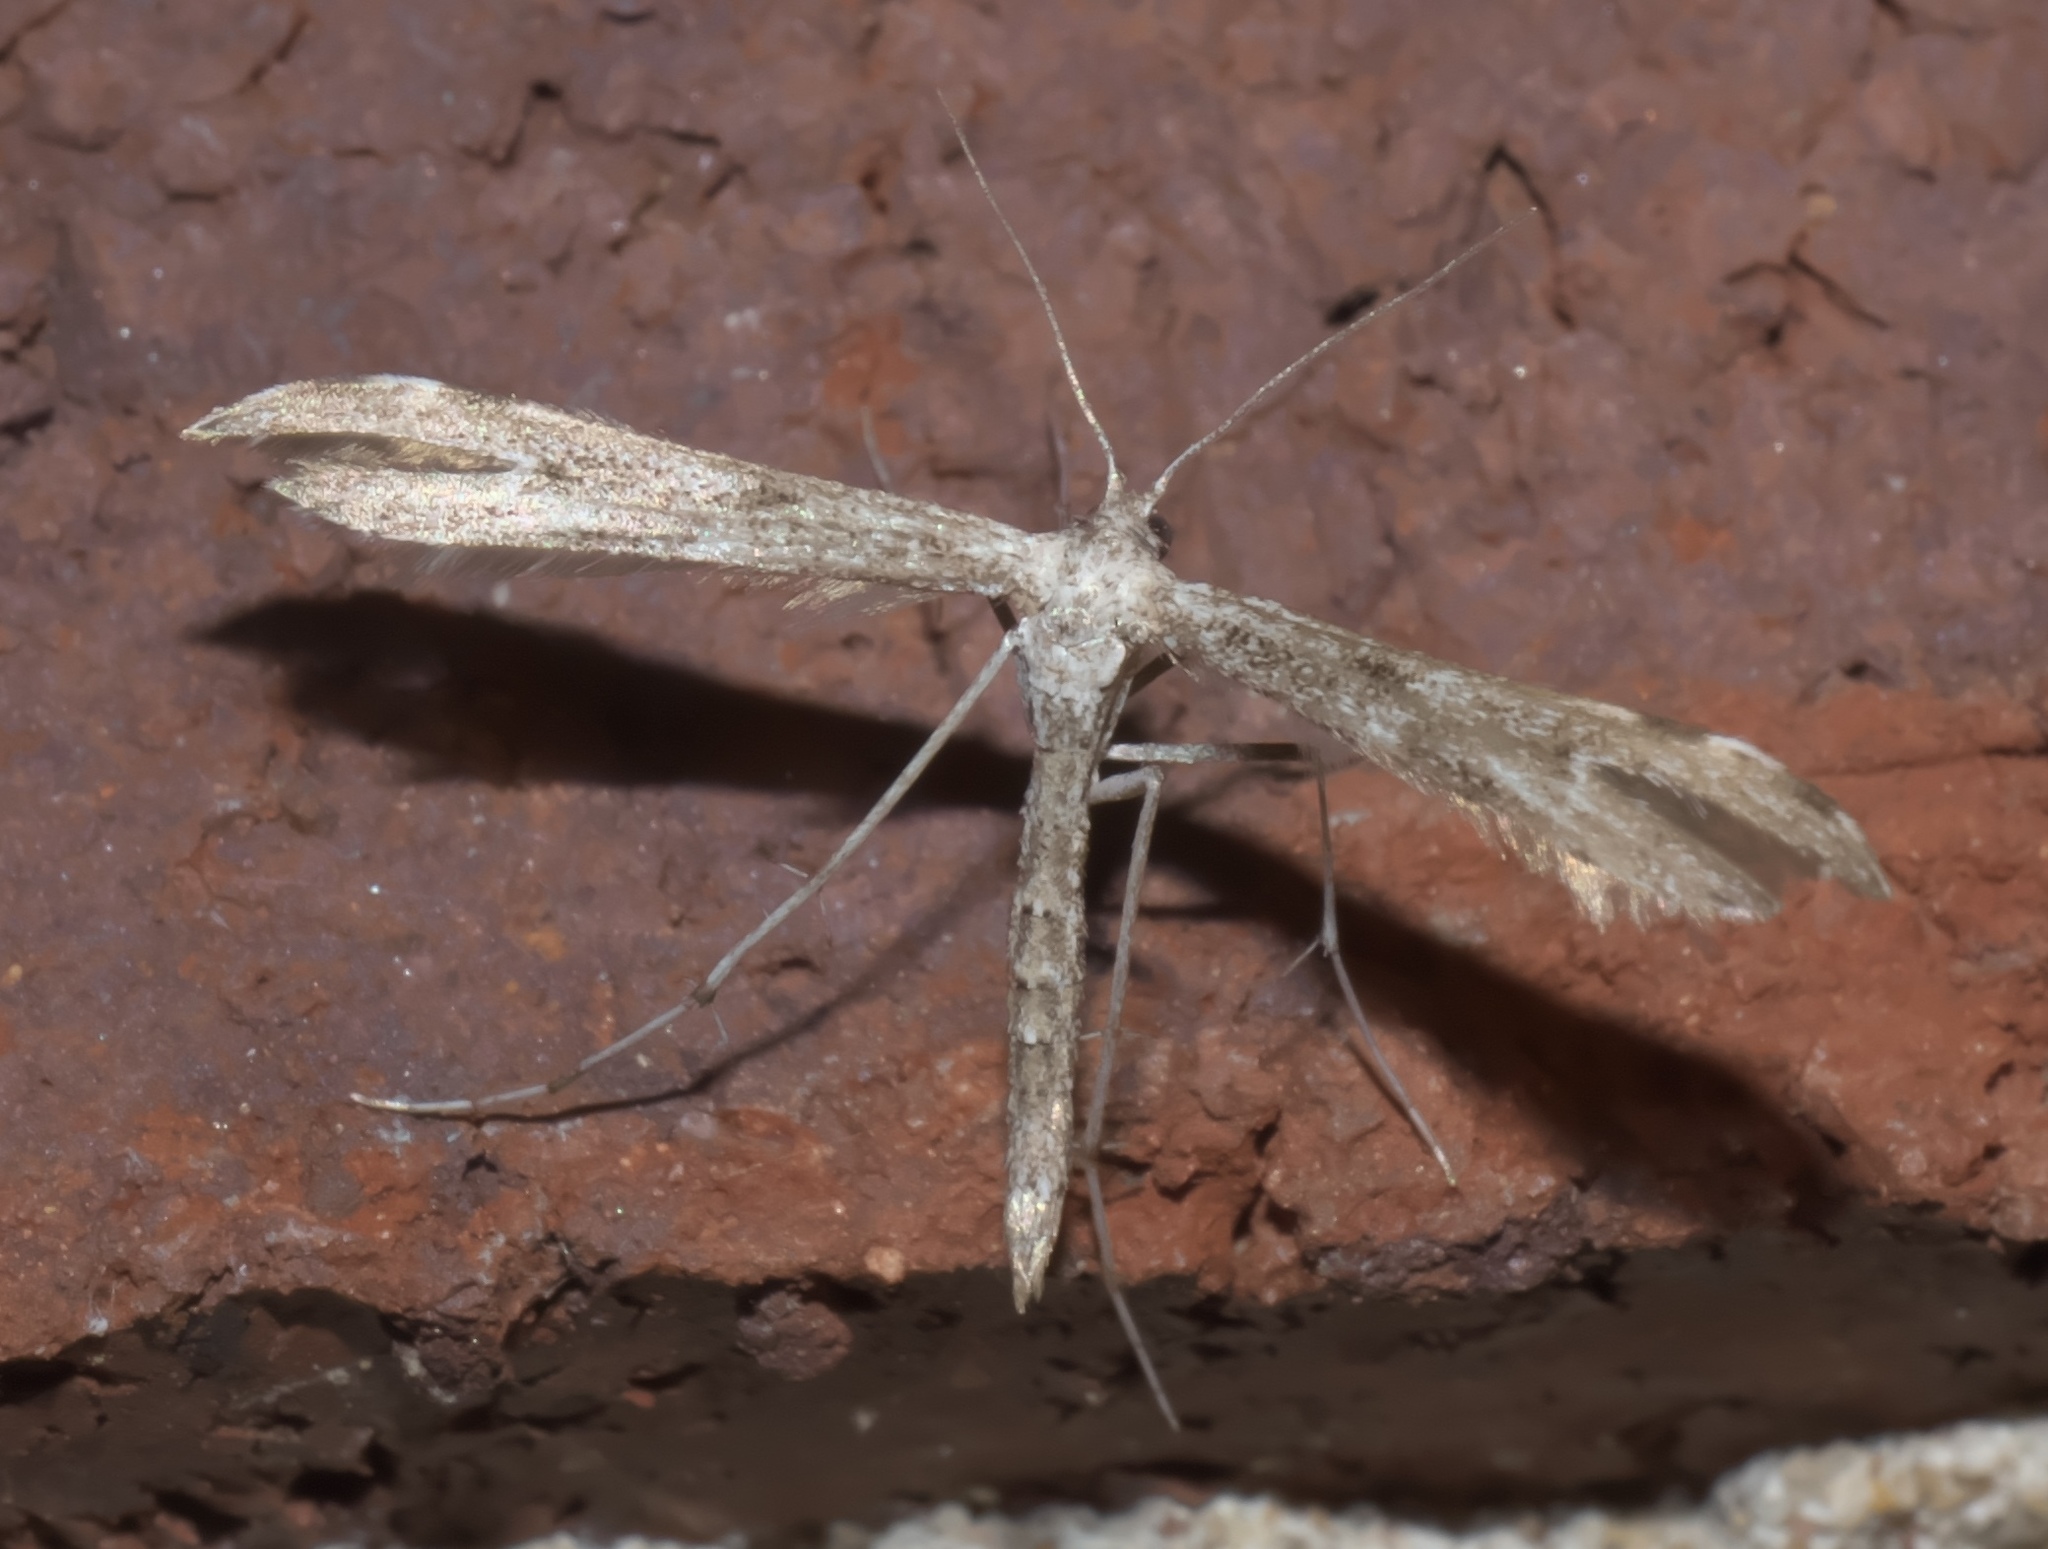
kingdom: Animalia
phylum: Arthropoda
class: Insecta
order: Lepidoptera
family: Pterophoridae
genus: Hellinsia
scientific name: Hellinsia inquinatus
